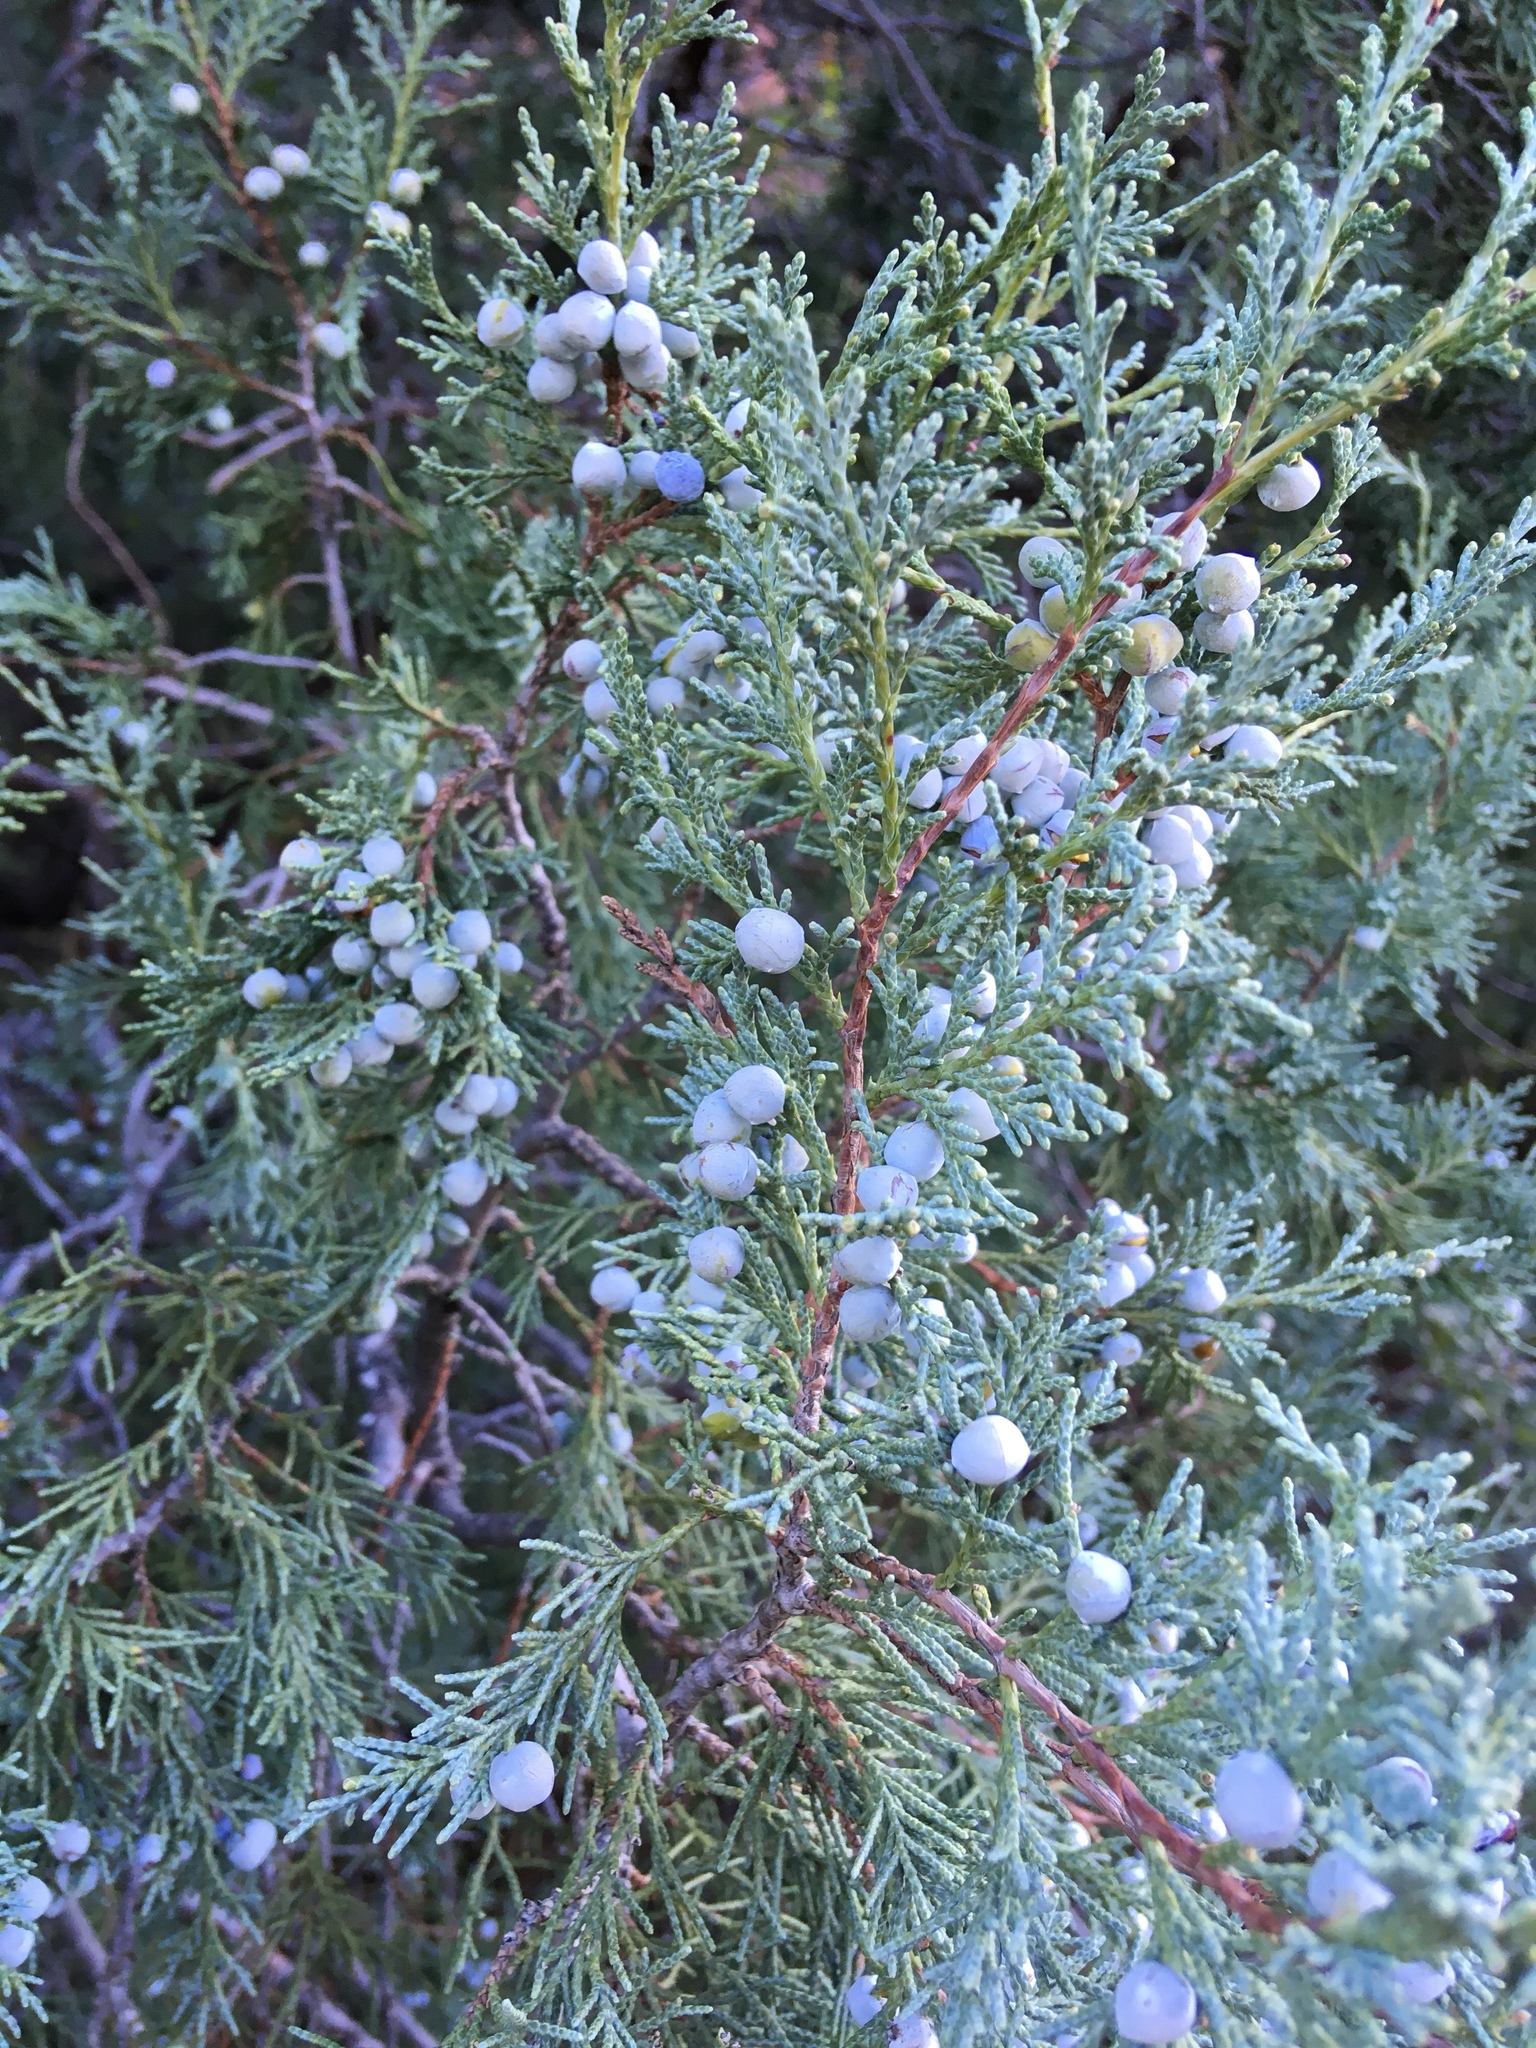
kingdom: Plantae
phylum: Tracheophyta
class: Pinopsida
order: Pinales
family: Cupressaceae
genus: Juniperus
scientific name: Juniperus scopulorum
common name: Rocky mountain juniper
